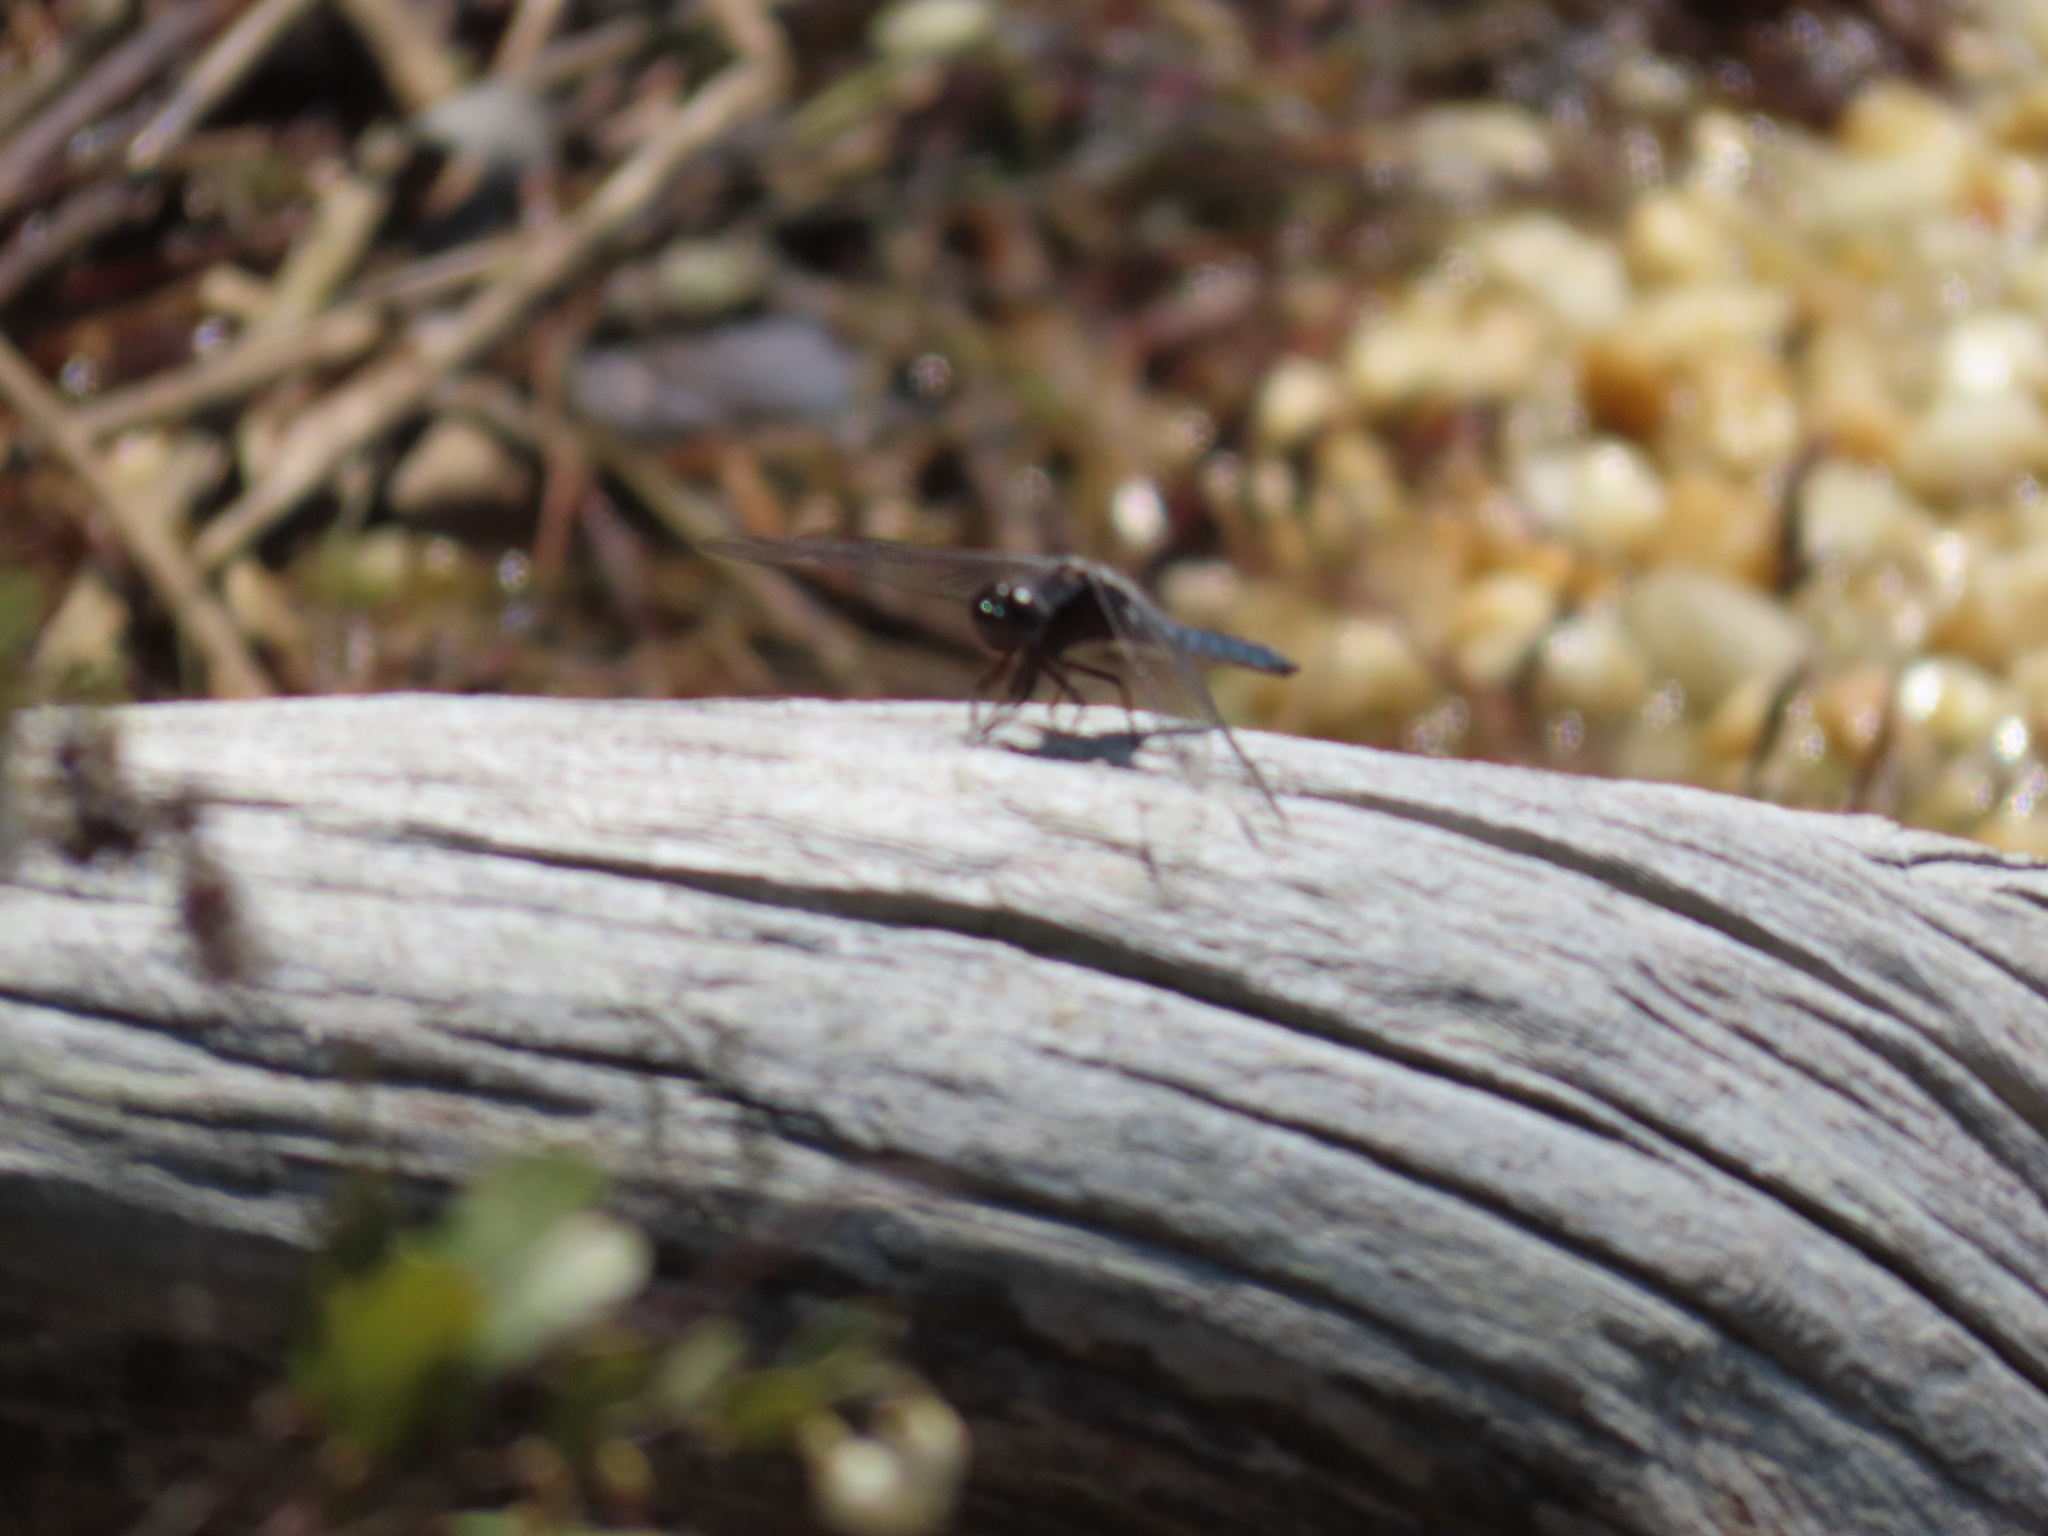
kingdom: Animalia
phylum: Arthropoda
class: Insecta
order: Odonata
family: Libellulidae
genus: Ladona
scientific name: Ladona deplanata
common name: Blue corporal
